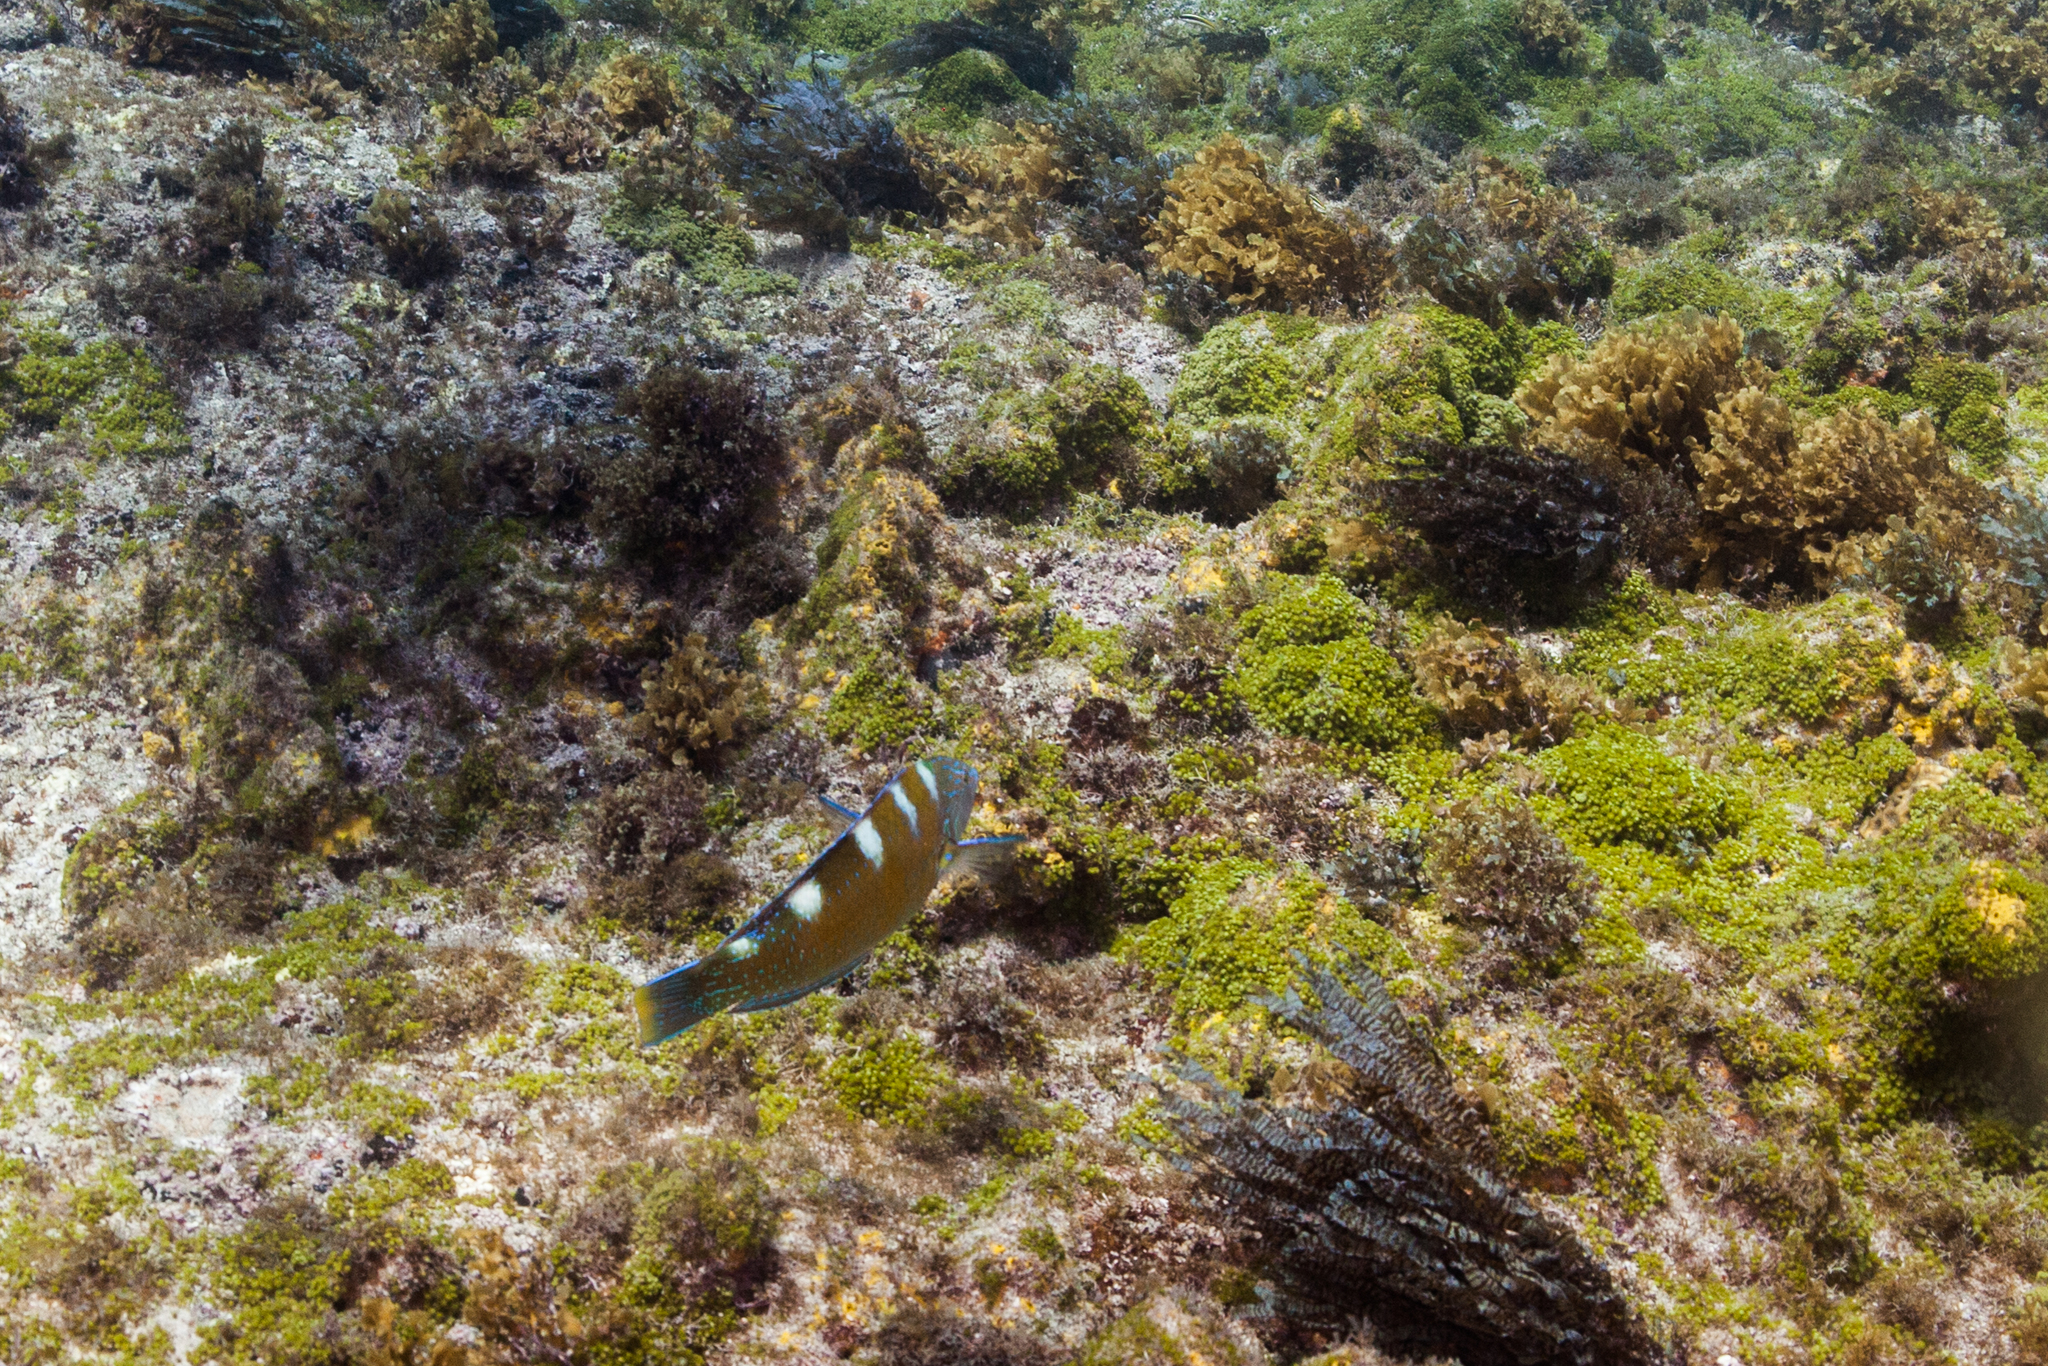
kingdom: Animalia
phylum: Chordata
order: Perciformes
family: Labridae
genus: Halichoeres
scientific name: Halichoeres radiatus
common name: Puddingwife
